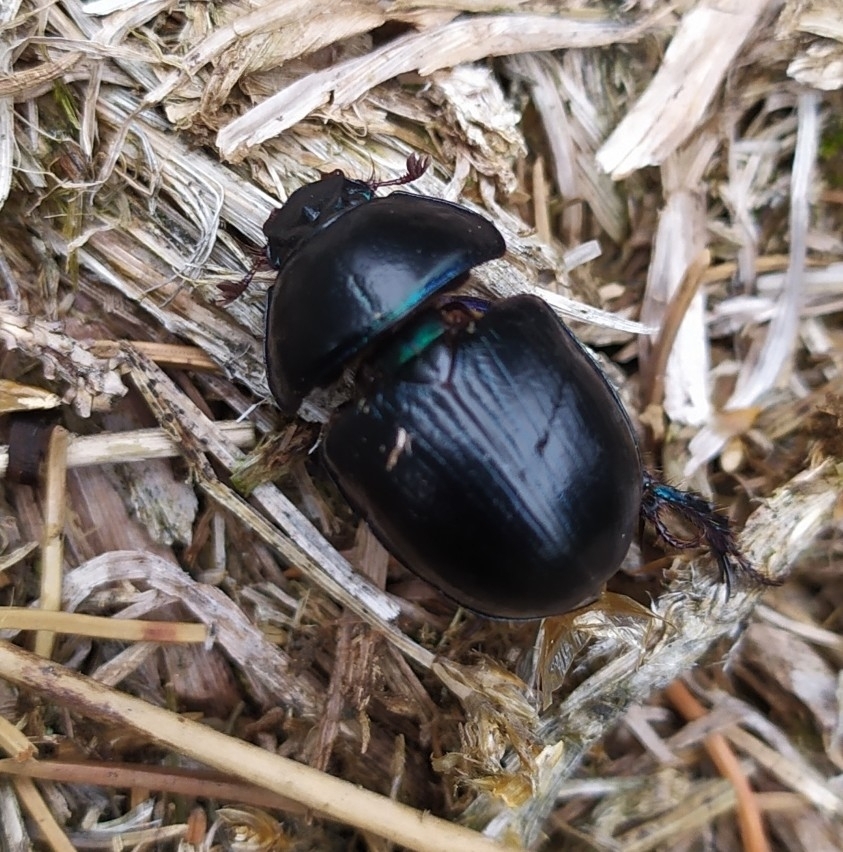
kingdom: Animalia
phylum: Arthropoda
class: Insecta
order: Coleoptera
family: Geotrupidae
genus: Geotrupes
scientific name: Geotrupes stercorarius
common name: Earth-boring dung beetle
